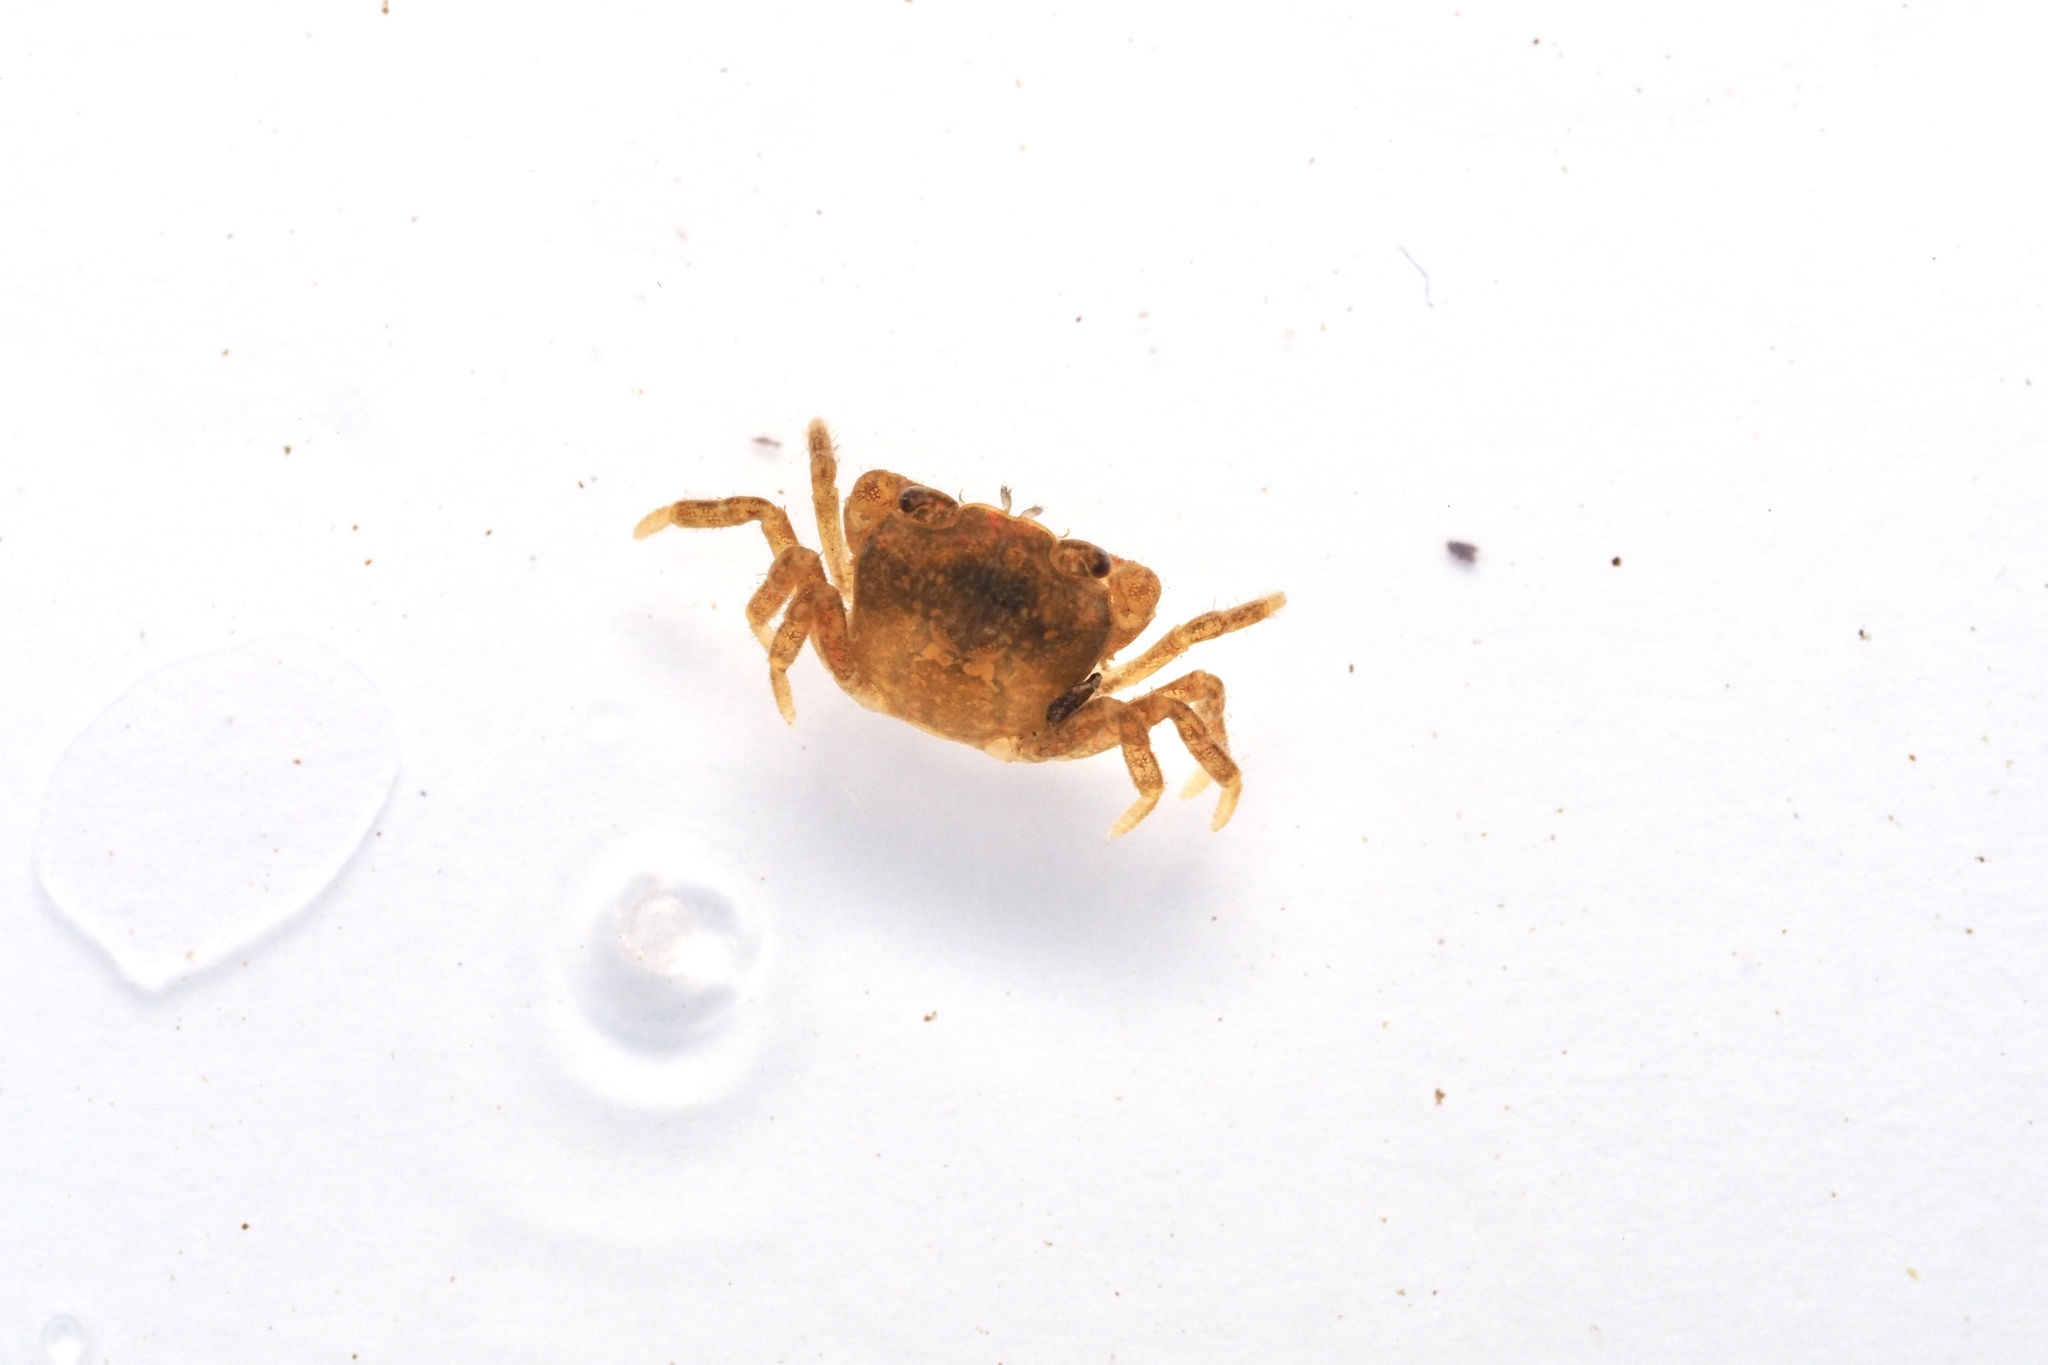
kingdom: Animalia
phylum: Arthropoda
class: Malacostraca
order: Decapoda
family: Potamidae
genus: Geothelphusa
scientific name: Geothelphusa dehaani
